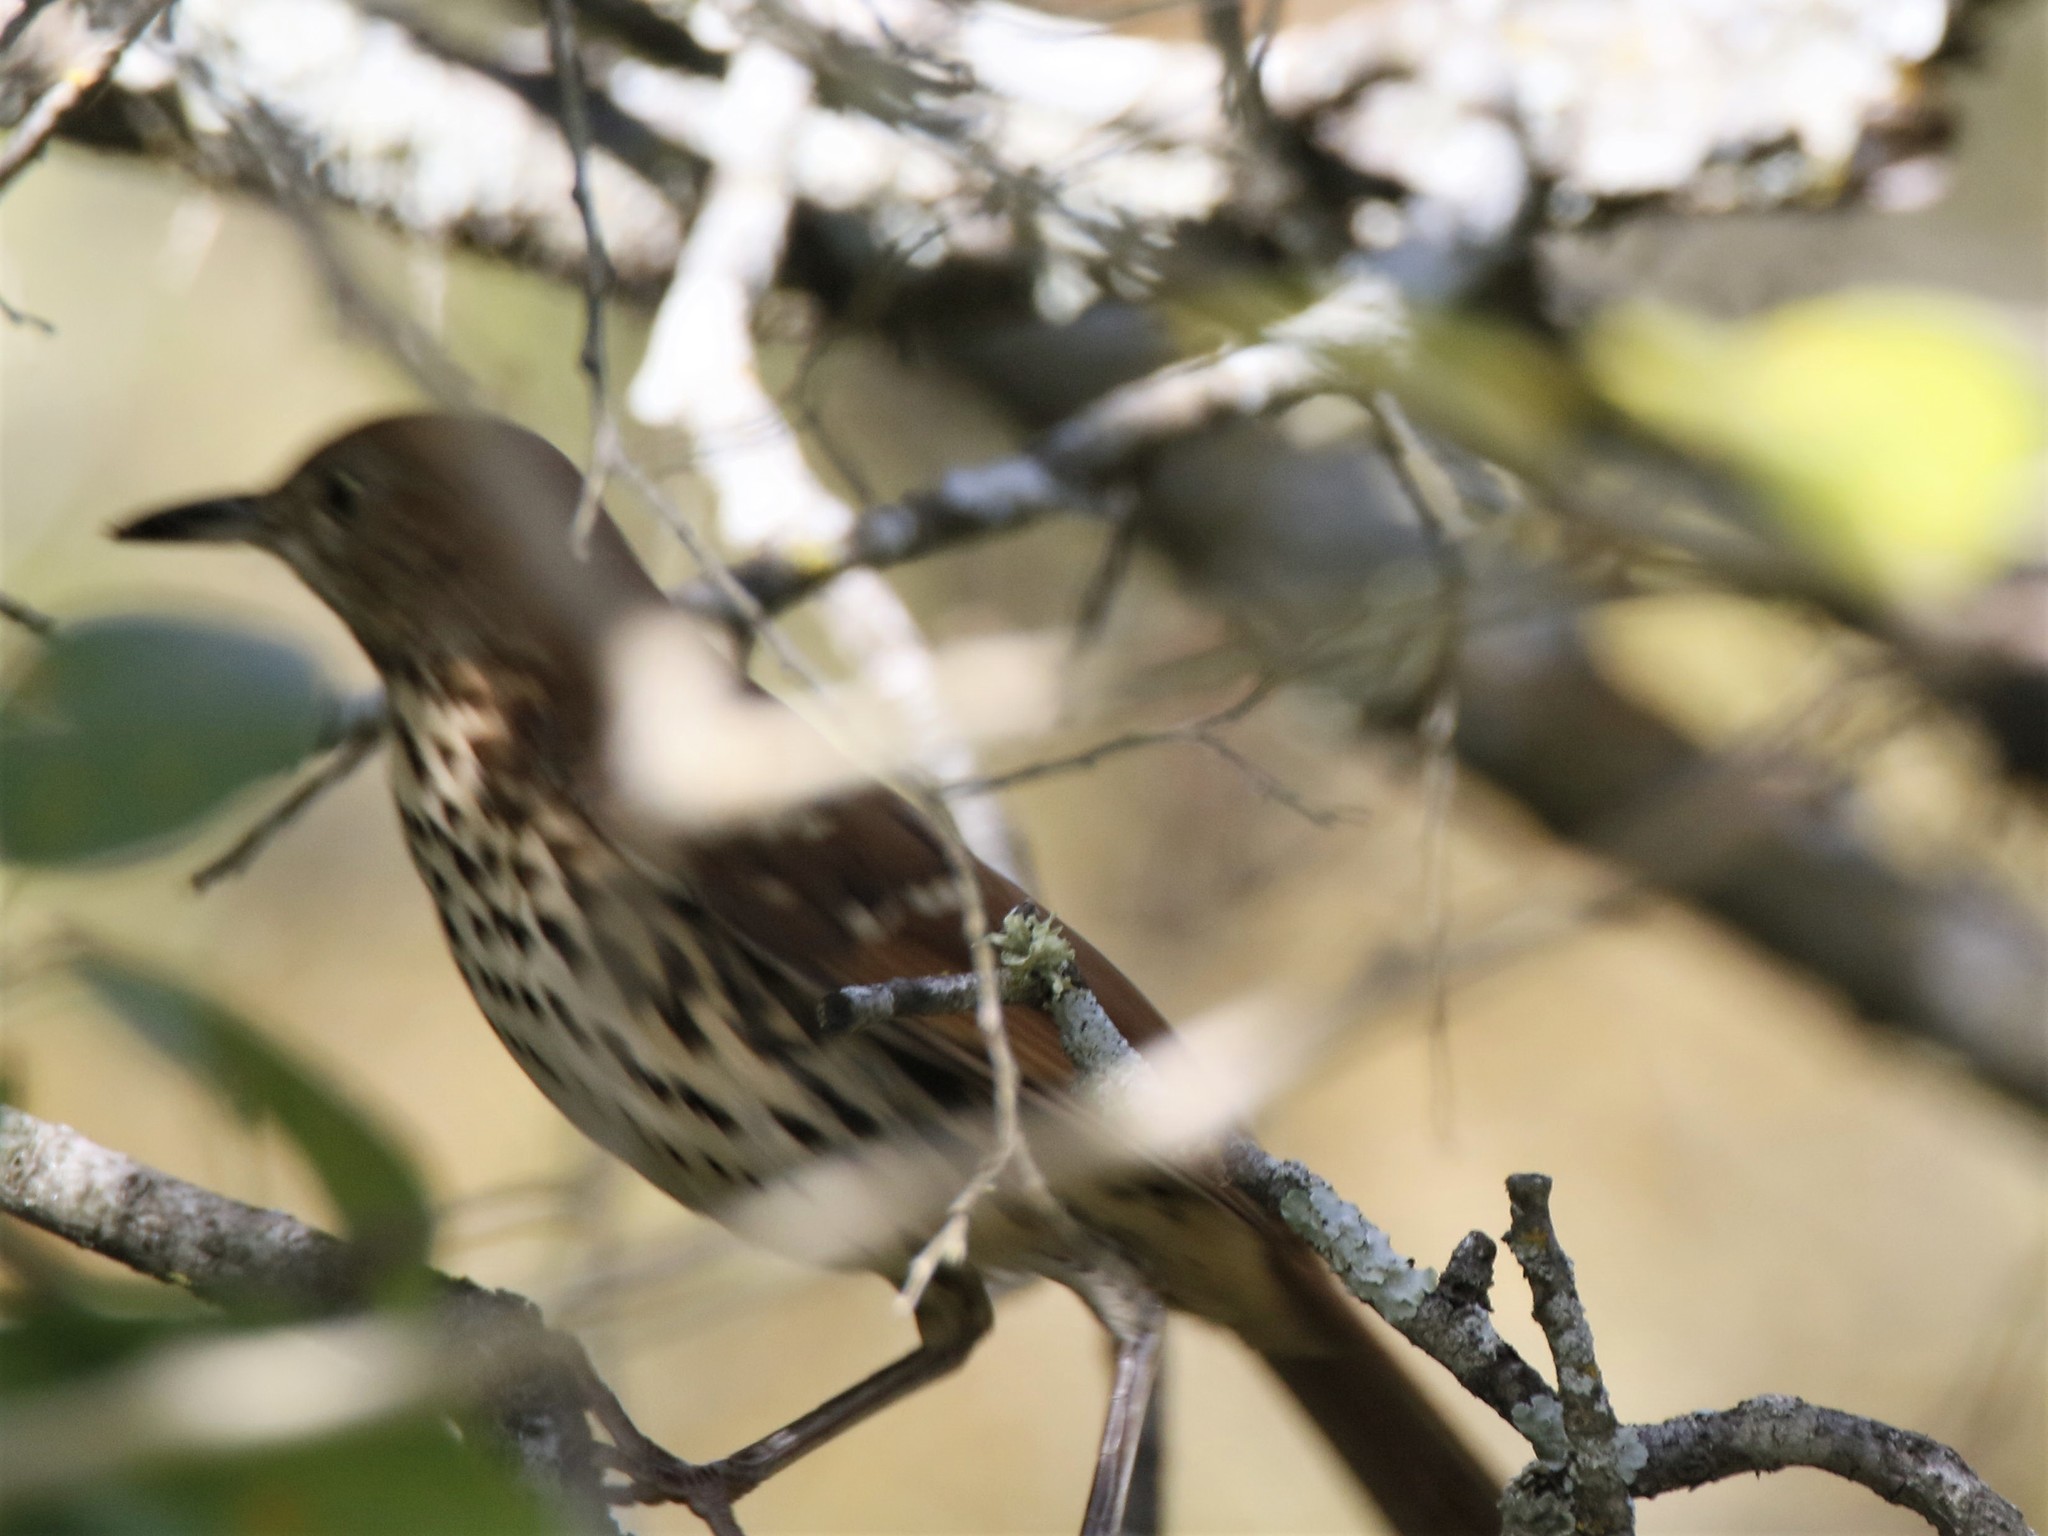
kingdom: Animalia
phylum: Chordata
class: Aves
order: Passeriformes
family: Mimidae
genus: Toxostoma
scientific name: Toxostoma rufum
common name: Brown thrasher
